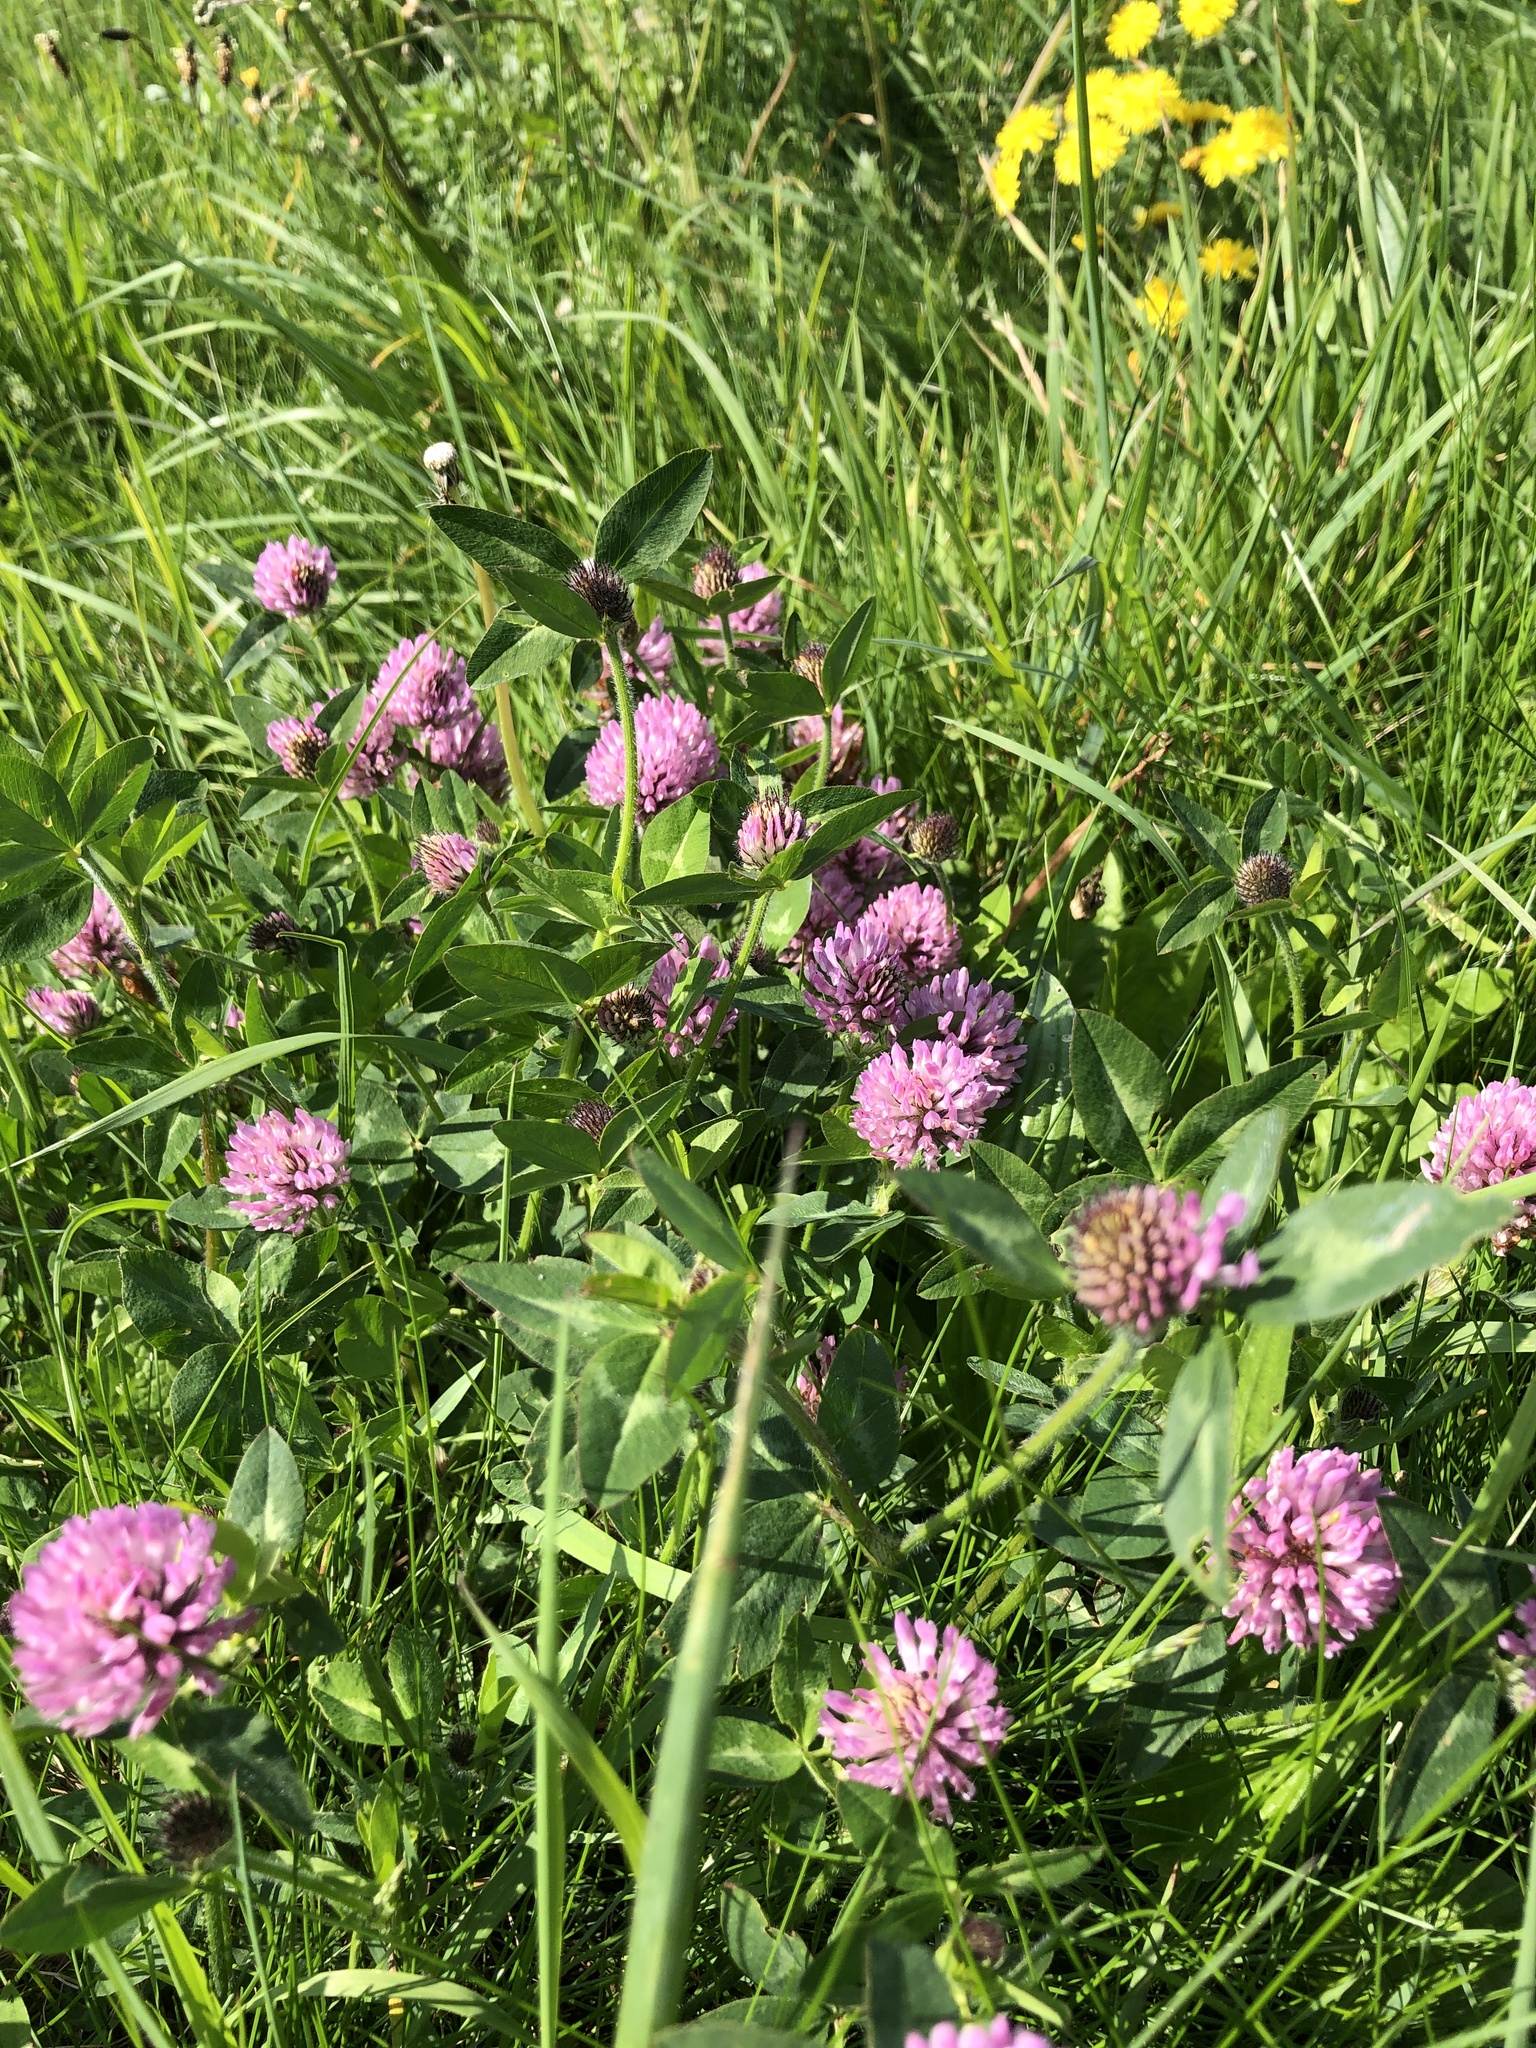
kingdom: Plantae
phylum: Tracheophyta
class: Magnoliopsida
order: Fabales
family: Fabaceae
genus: Trifolium
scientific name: Trifolium pratense
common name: Red clover
